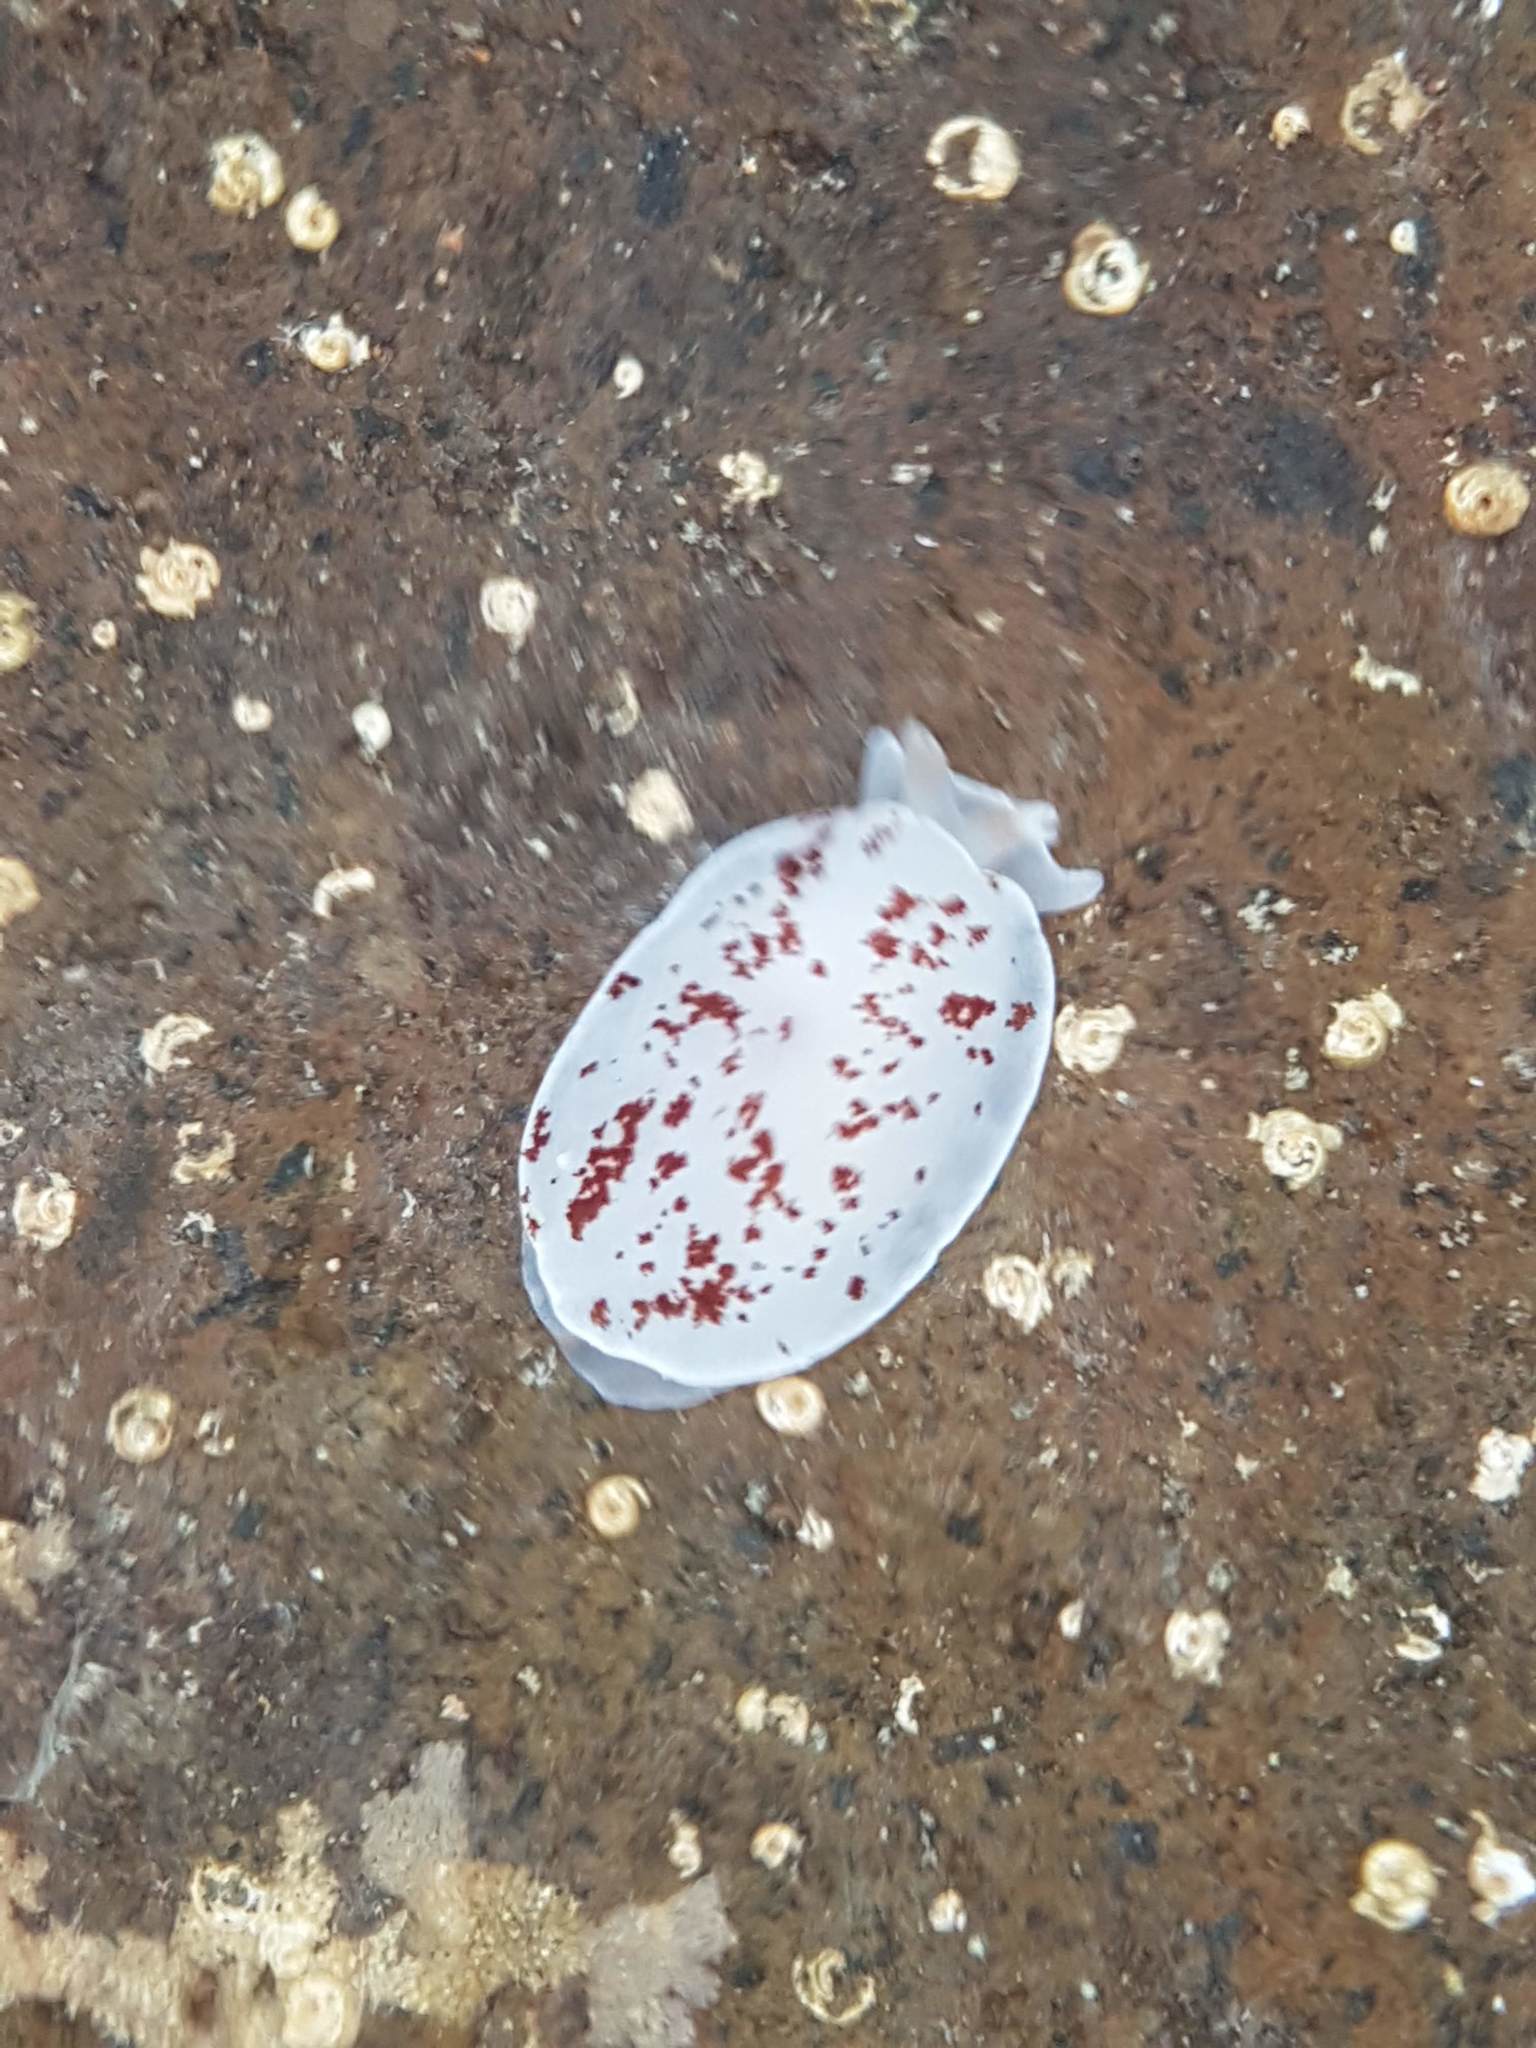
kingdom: Animalia
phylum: Mollusca
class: Gastropoda
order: Pleurobranchida
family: Pleurobranchidae
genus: Berthella
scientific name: Berthella ornata
